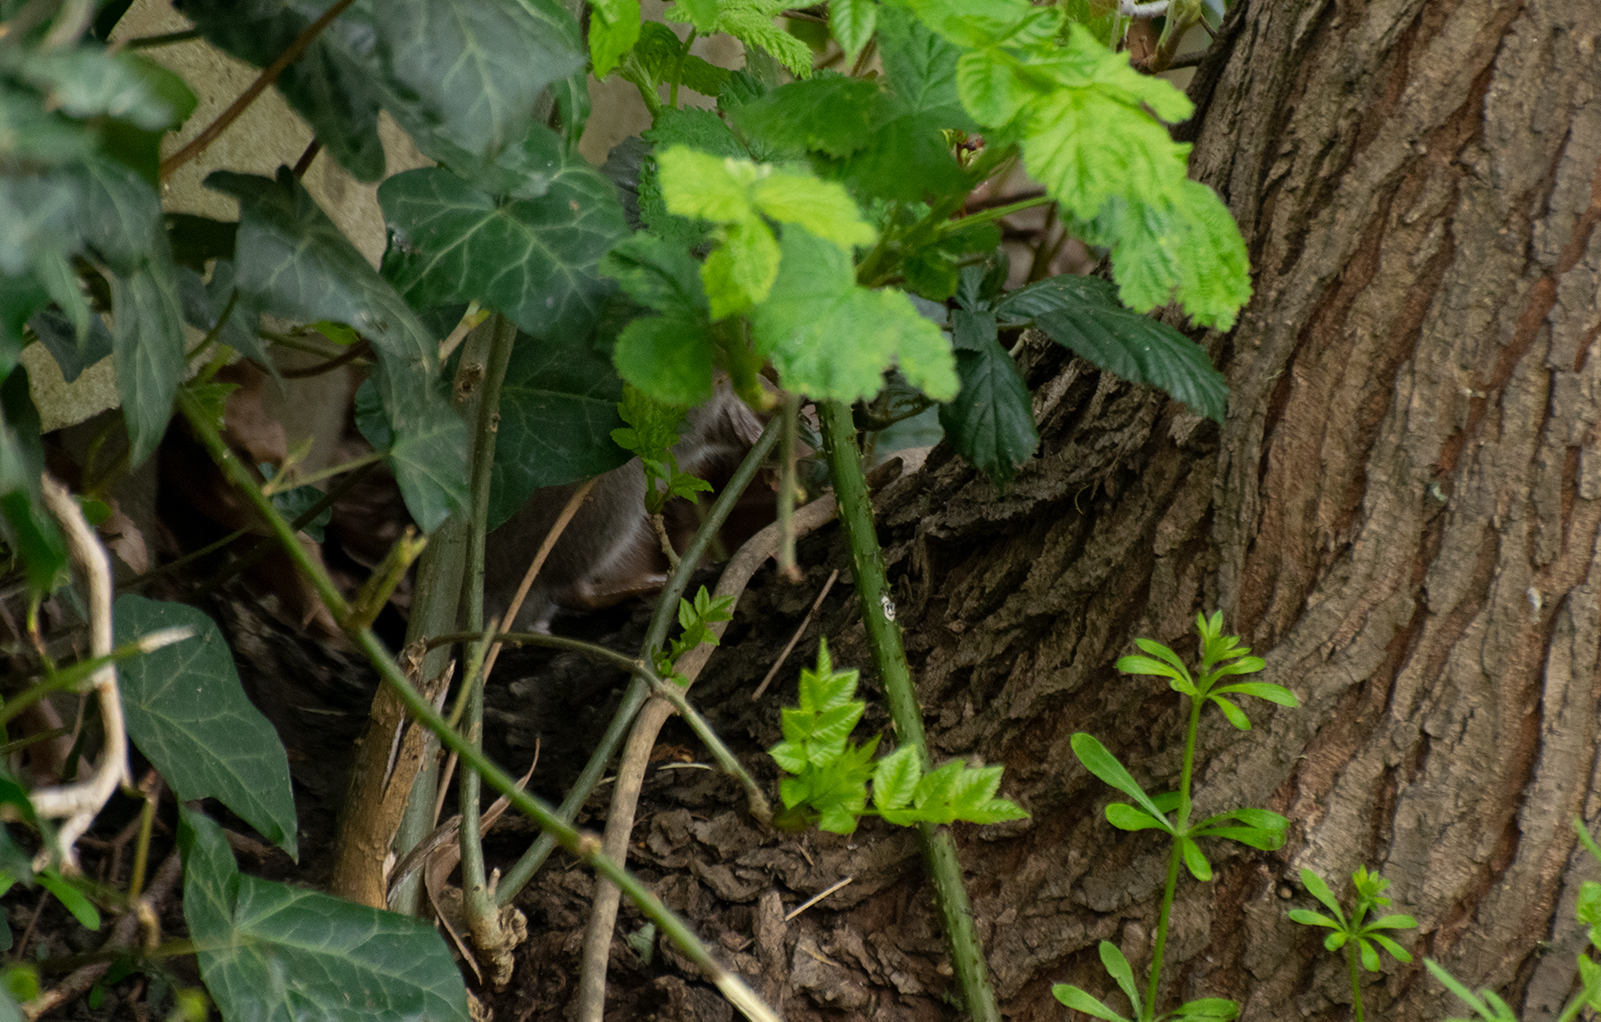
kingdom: Animalia
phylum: Chordata
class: Mammalia
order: Rodentia
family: Muridae
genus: Rattus
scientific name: Rattus norvegicus
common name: Brown rat
